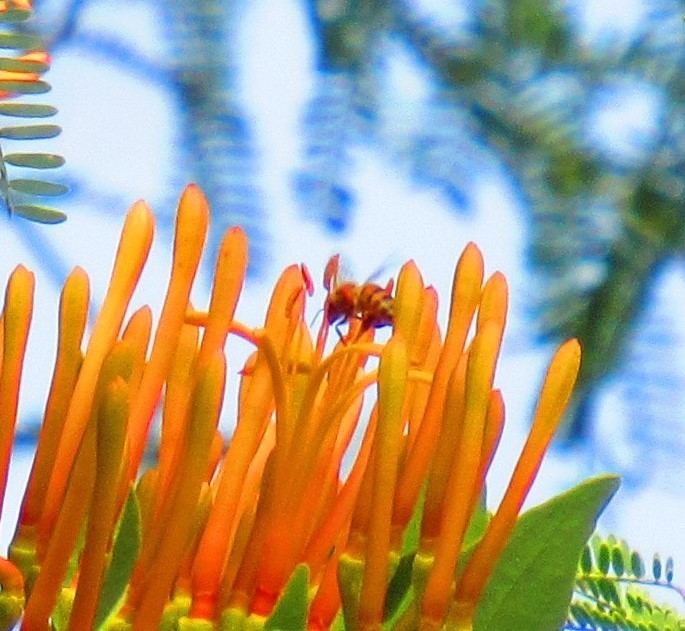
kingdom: Animalia
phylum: Arthropoda
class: Insecta
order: Hymenoptera
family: Apidae
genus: Apis
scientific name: Apis mellifera
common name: Honey bee
